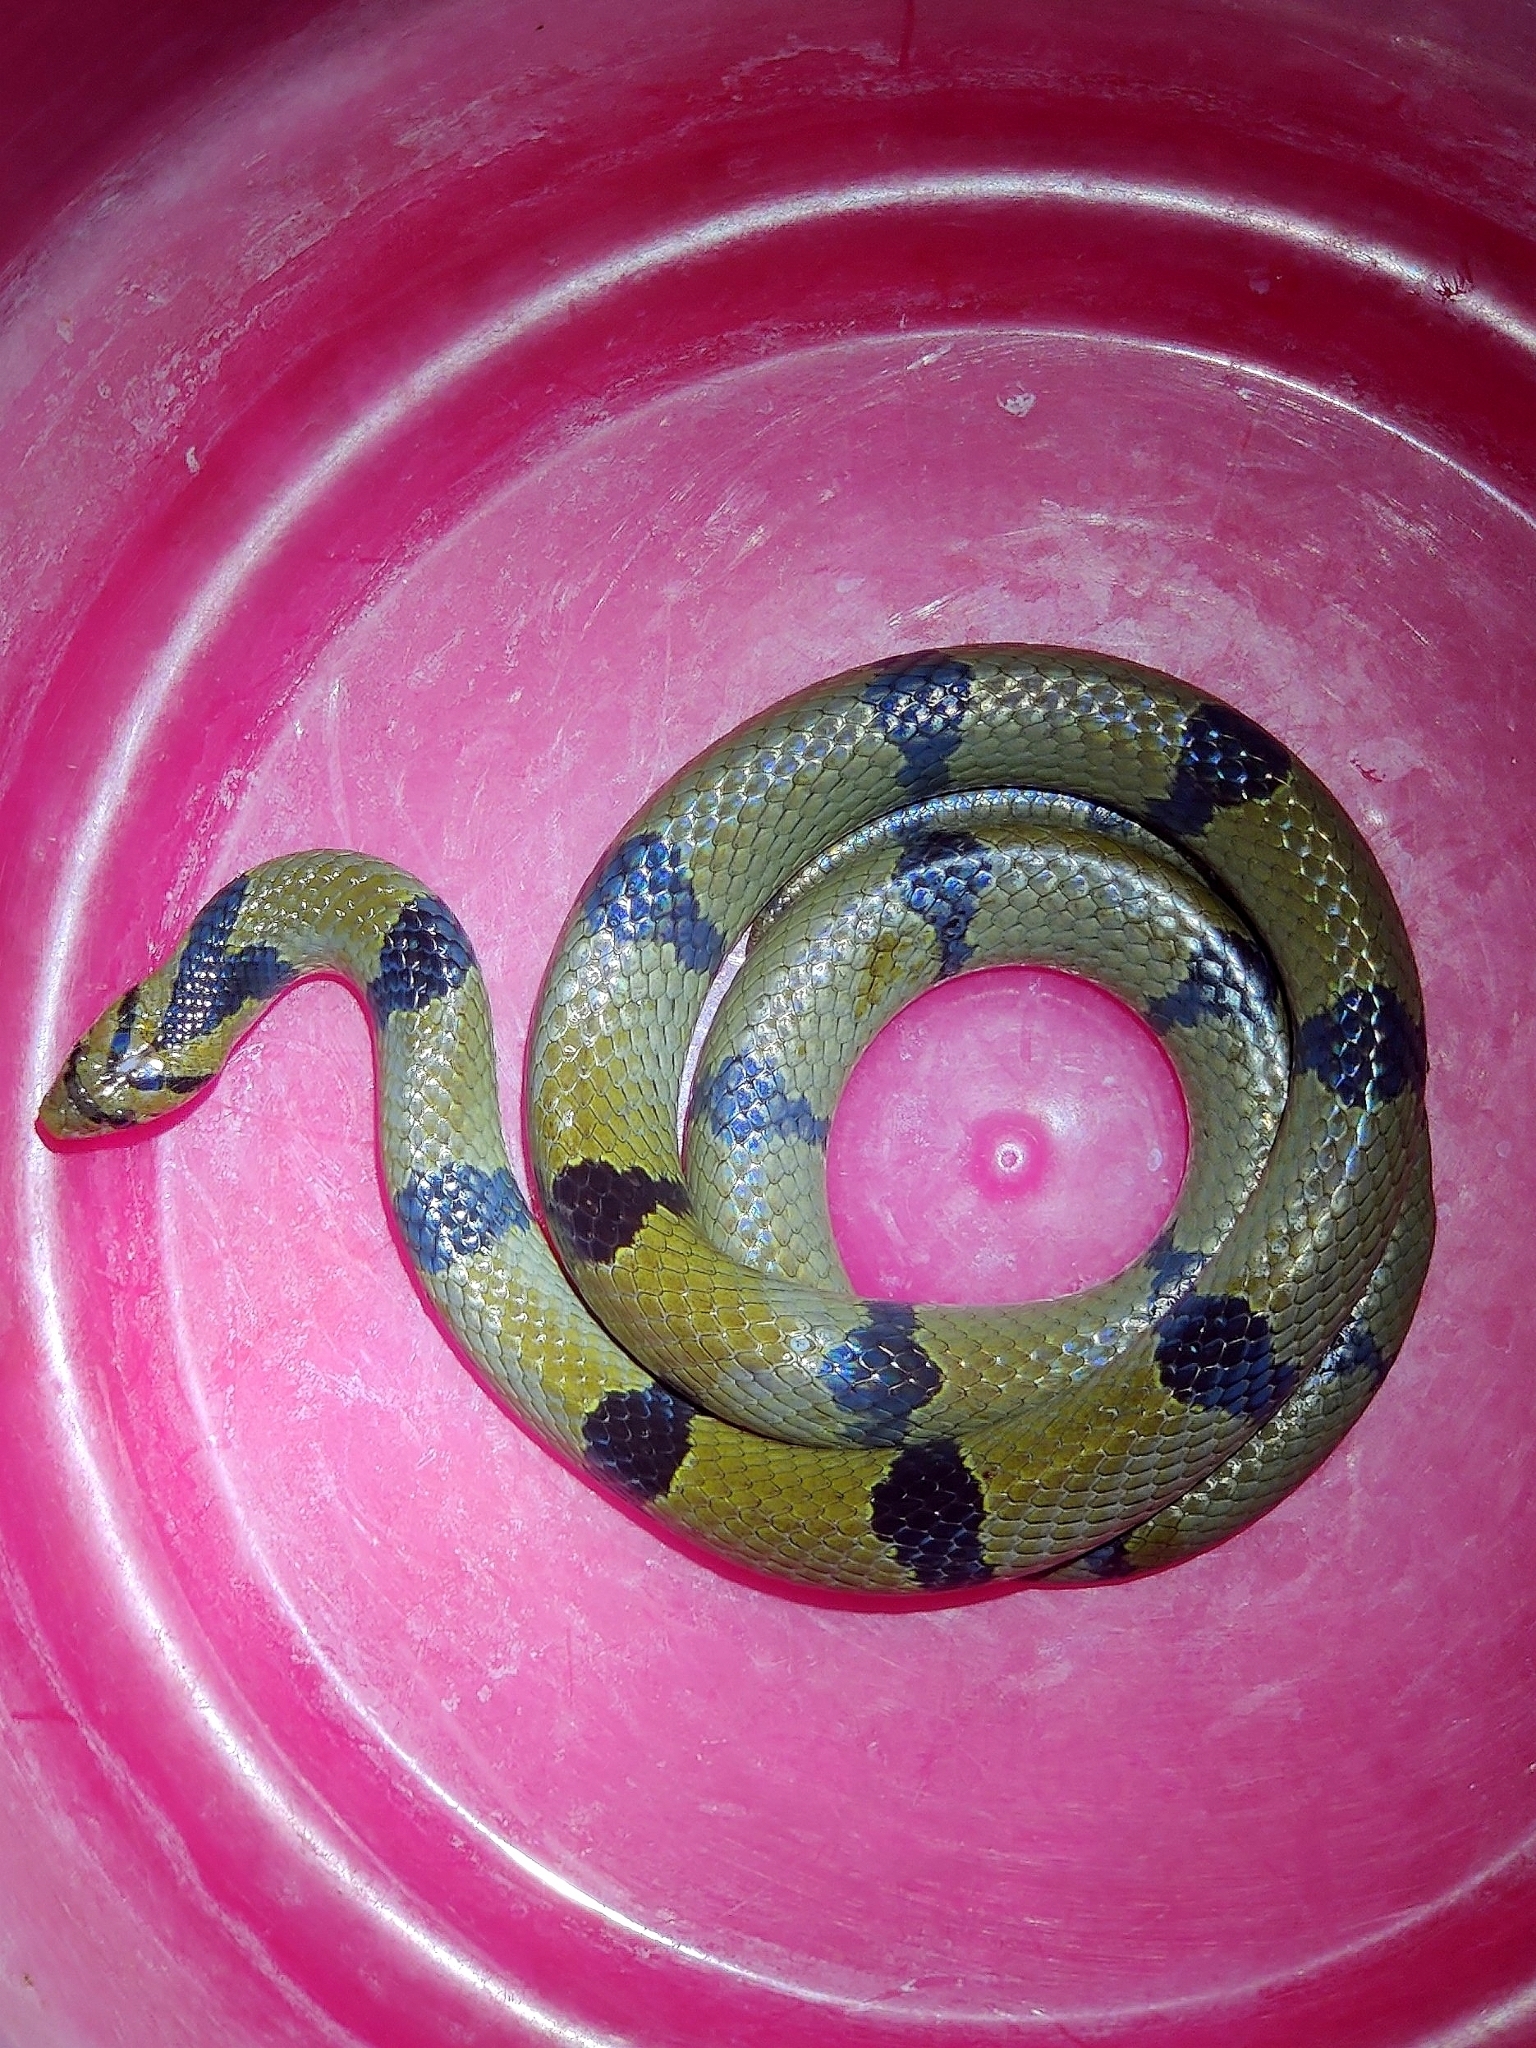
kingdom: Animalia
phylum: Chordata
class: Squamata
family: Colubridae
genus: Oligodon
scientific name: Oligodon arnensis
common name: Banded kukri
